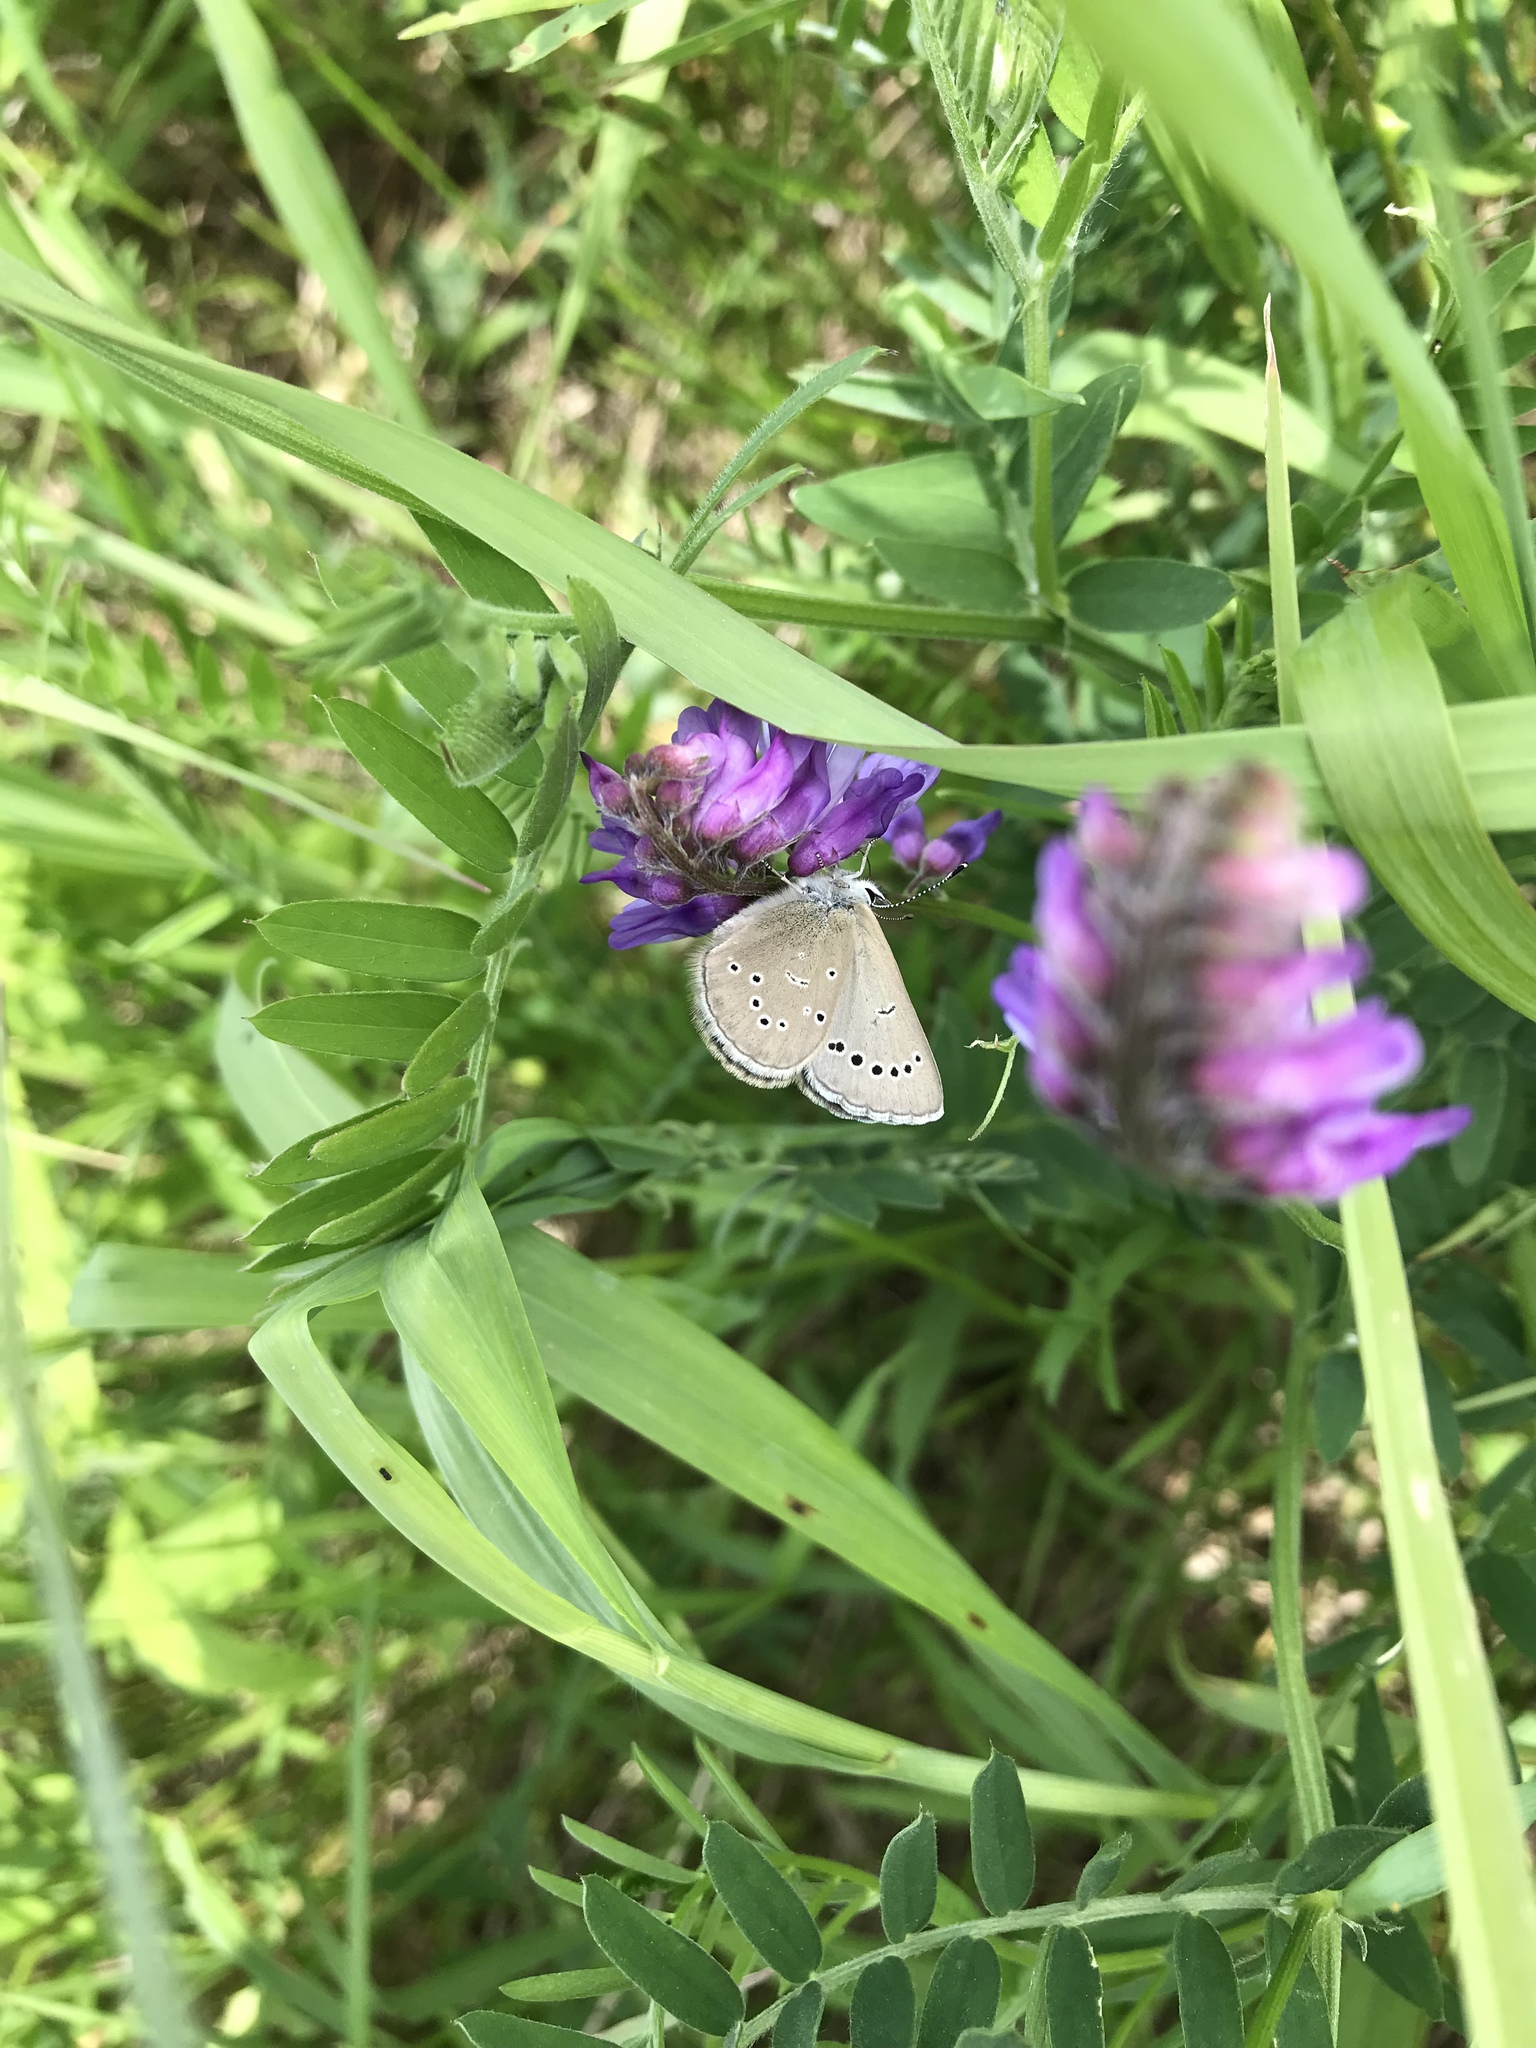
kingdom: Animalia
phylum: Arthropoda
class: Insecta
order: Lepidoptera
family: Lycaenidae
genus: Glaucopsyche
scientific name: Glaucopsyche lygdamus
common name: Silvery blue
